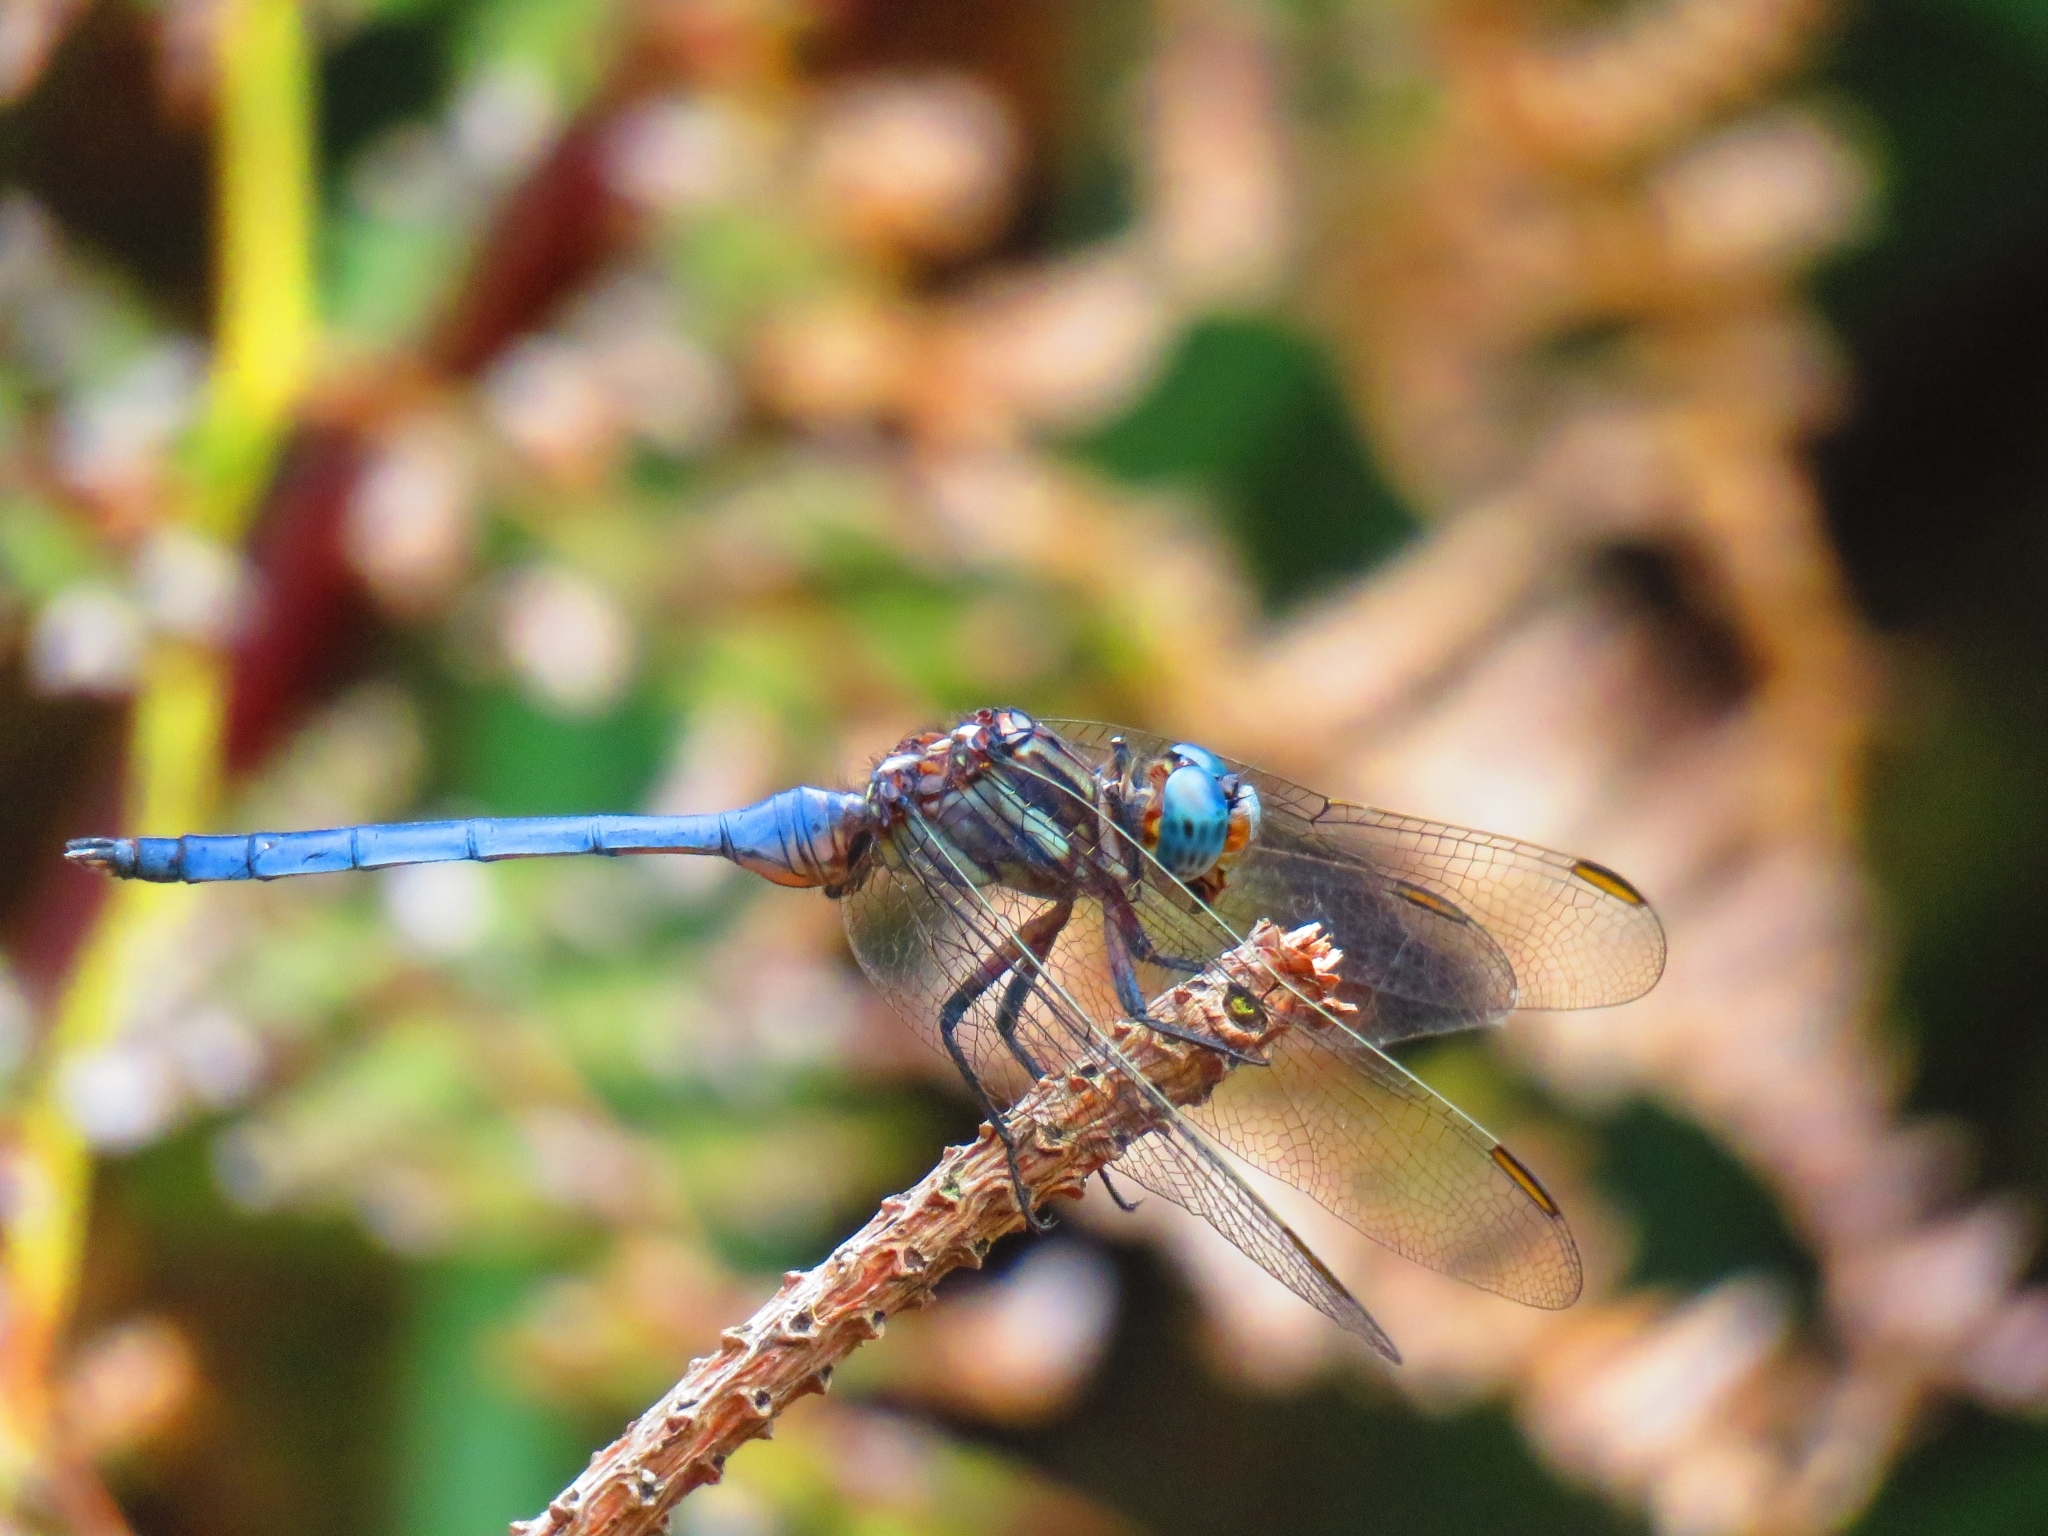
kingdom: Animalia
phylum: Arthropoda
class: Insecta
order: Odonata
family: Libellulidae
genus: Orthetrum
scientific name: Orthetrum julia
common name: Julia skimmer
